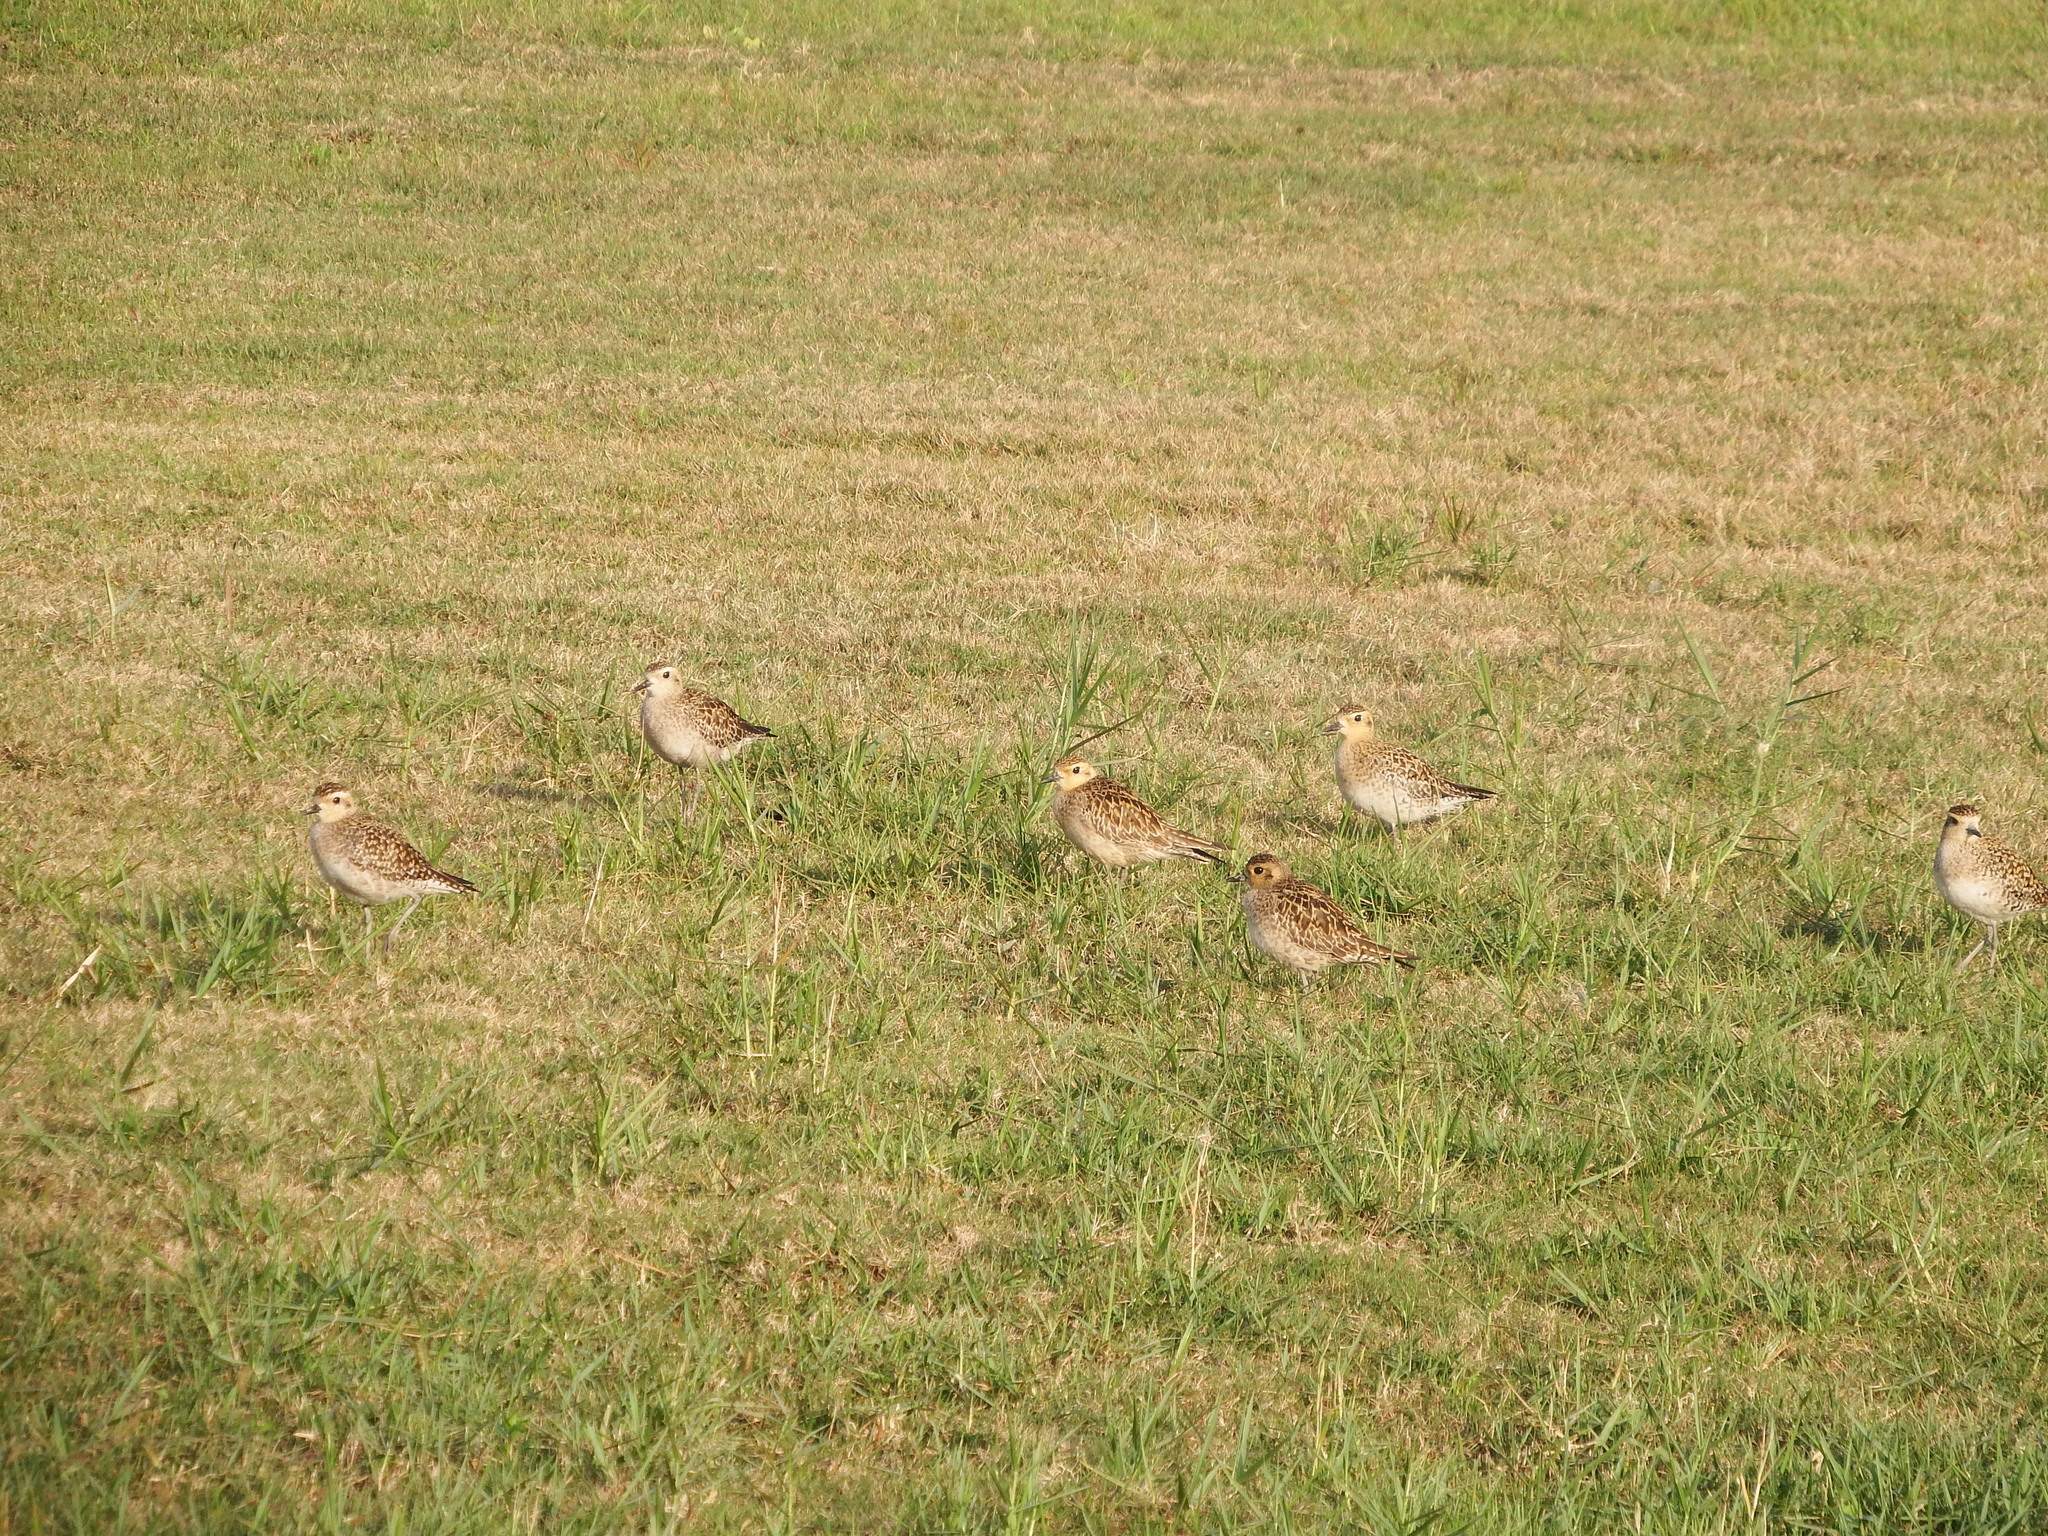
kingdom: Animalia
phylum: Chordata
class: Aves
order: Charadriiformes
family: Charadriidae
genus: Pluvialis
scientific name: Pluvialis fulva
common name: Pacific golden plover
